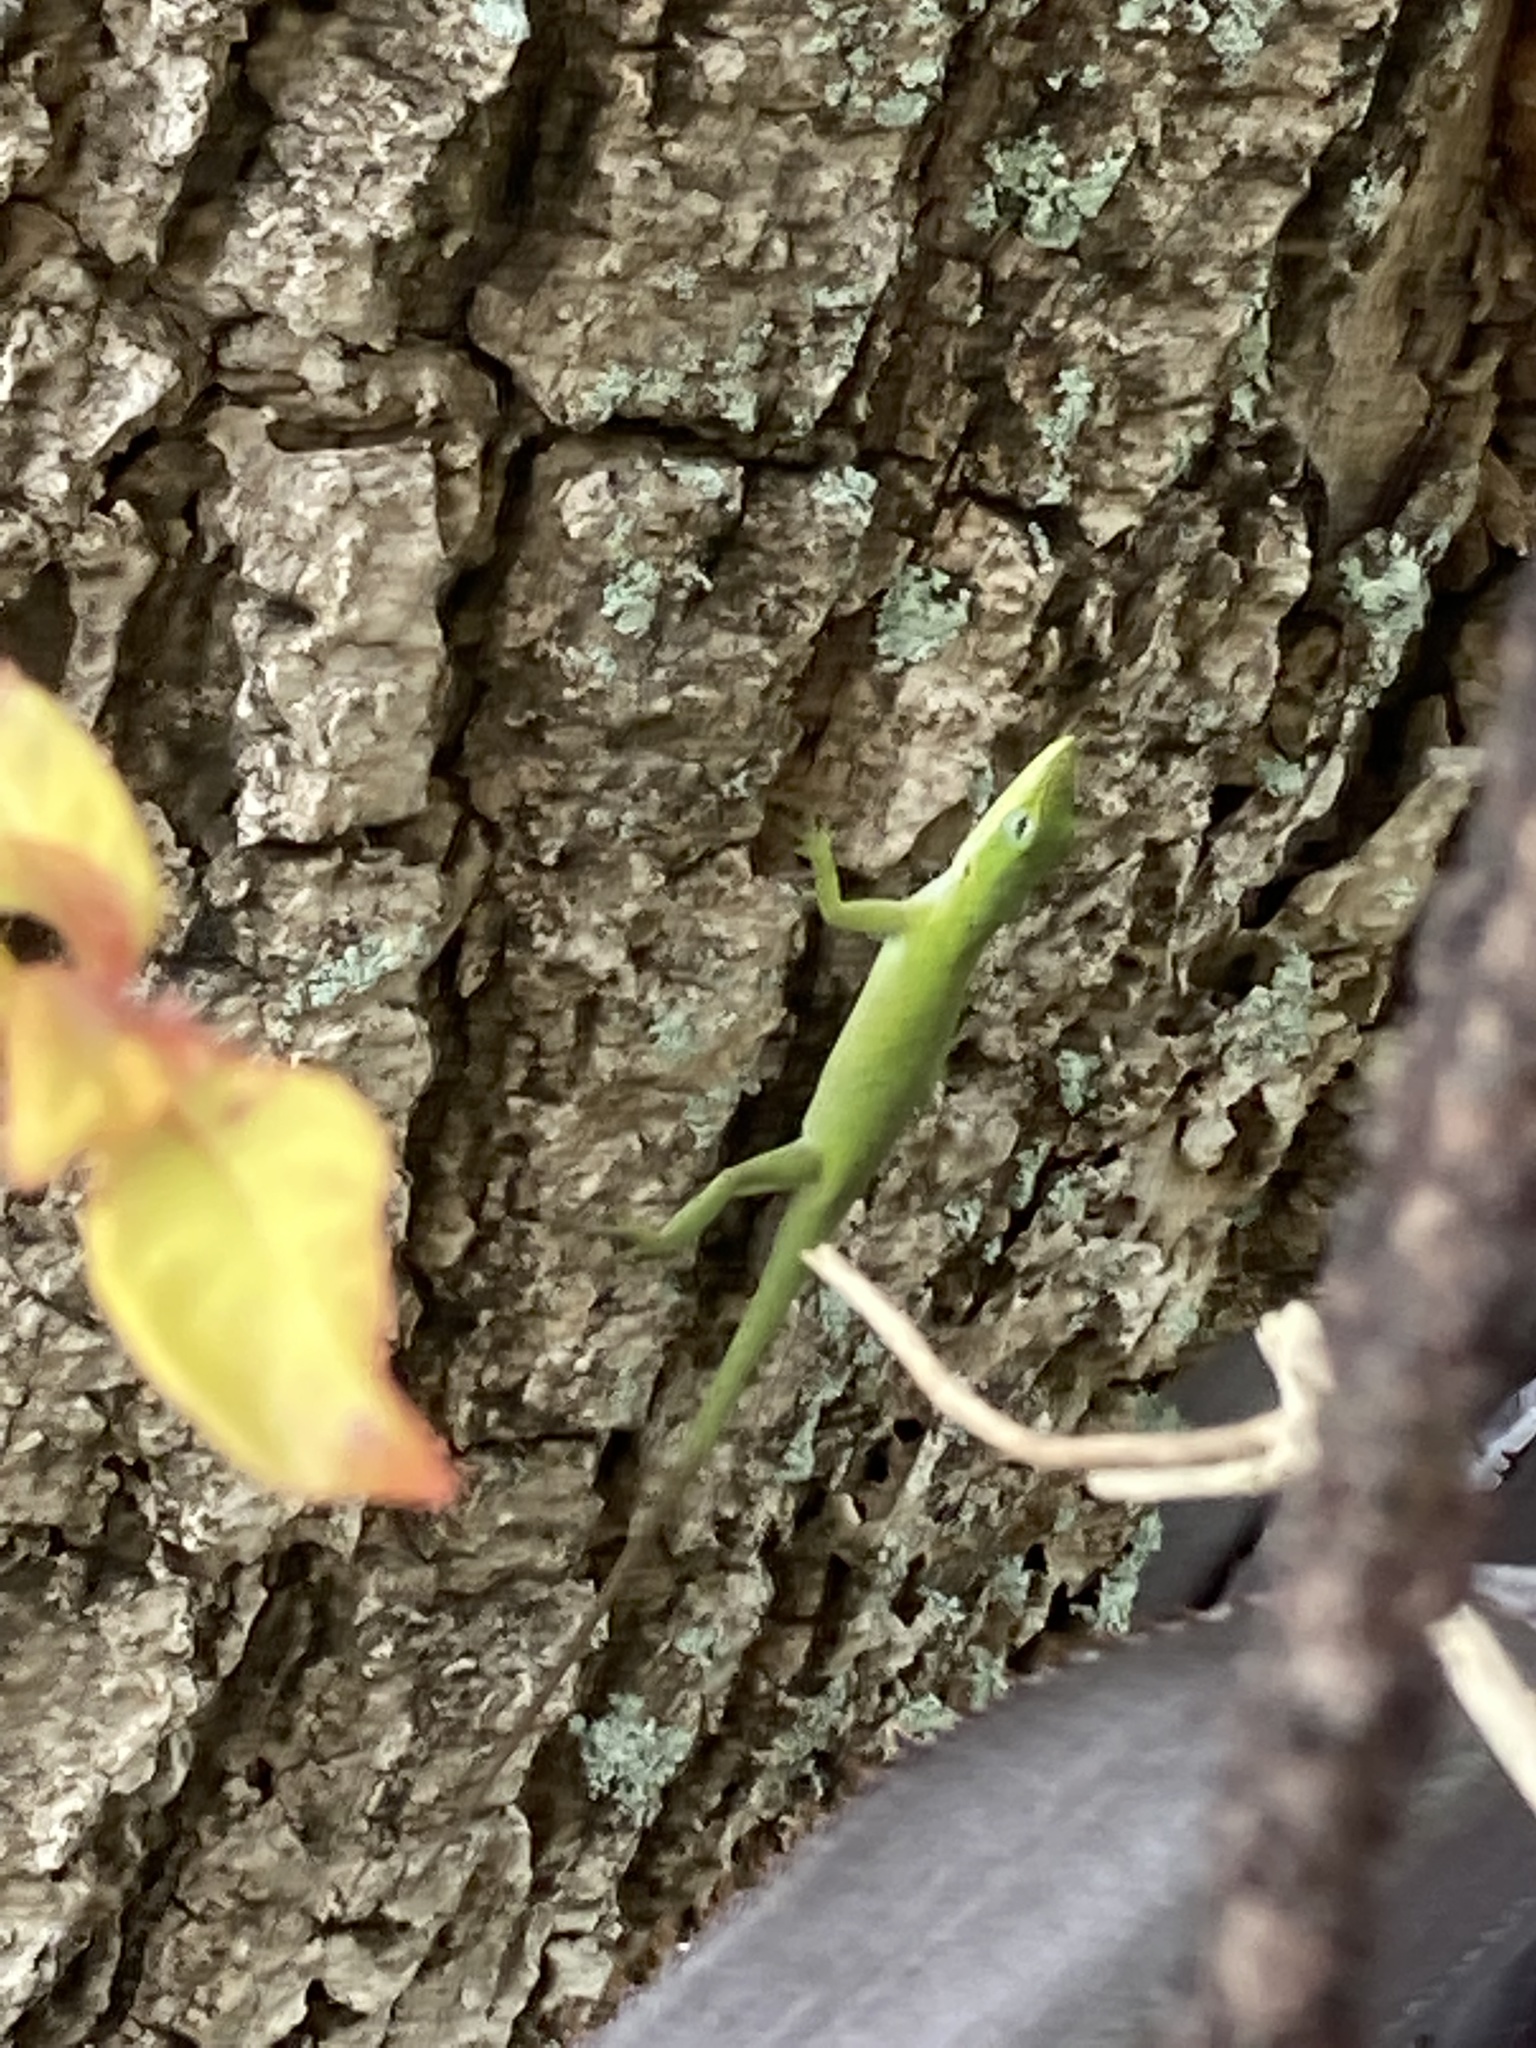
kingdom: Animalia
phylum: Chordata
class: Squamata
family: Dactyloidae
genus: Anolis
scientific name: Anolis carolinensis
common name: Green anole
